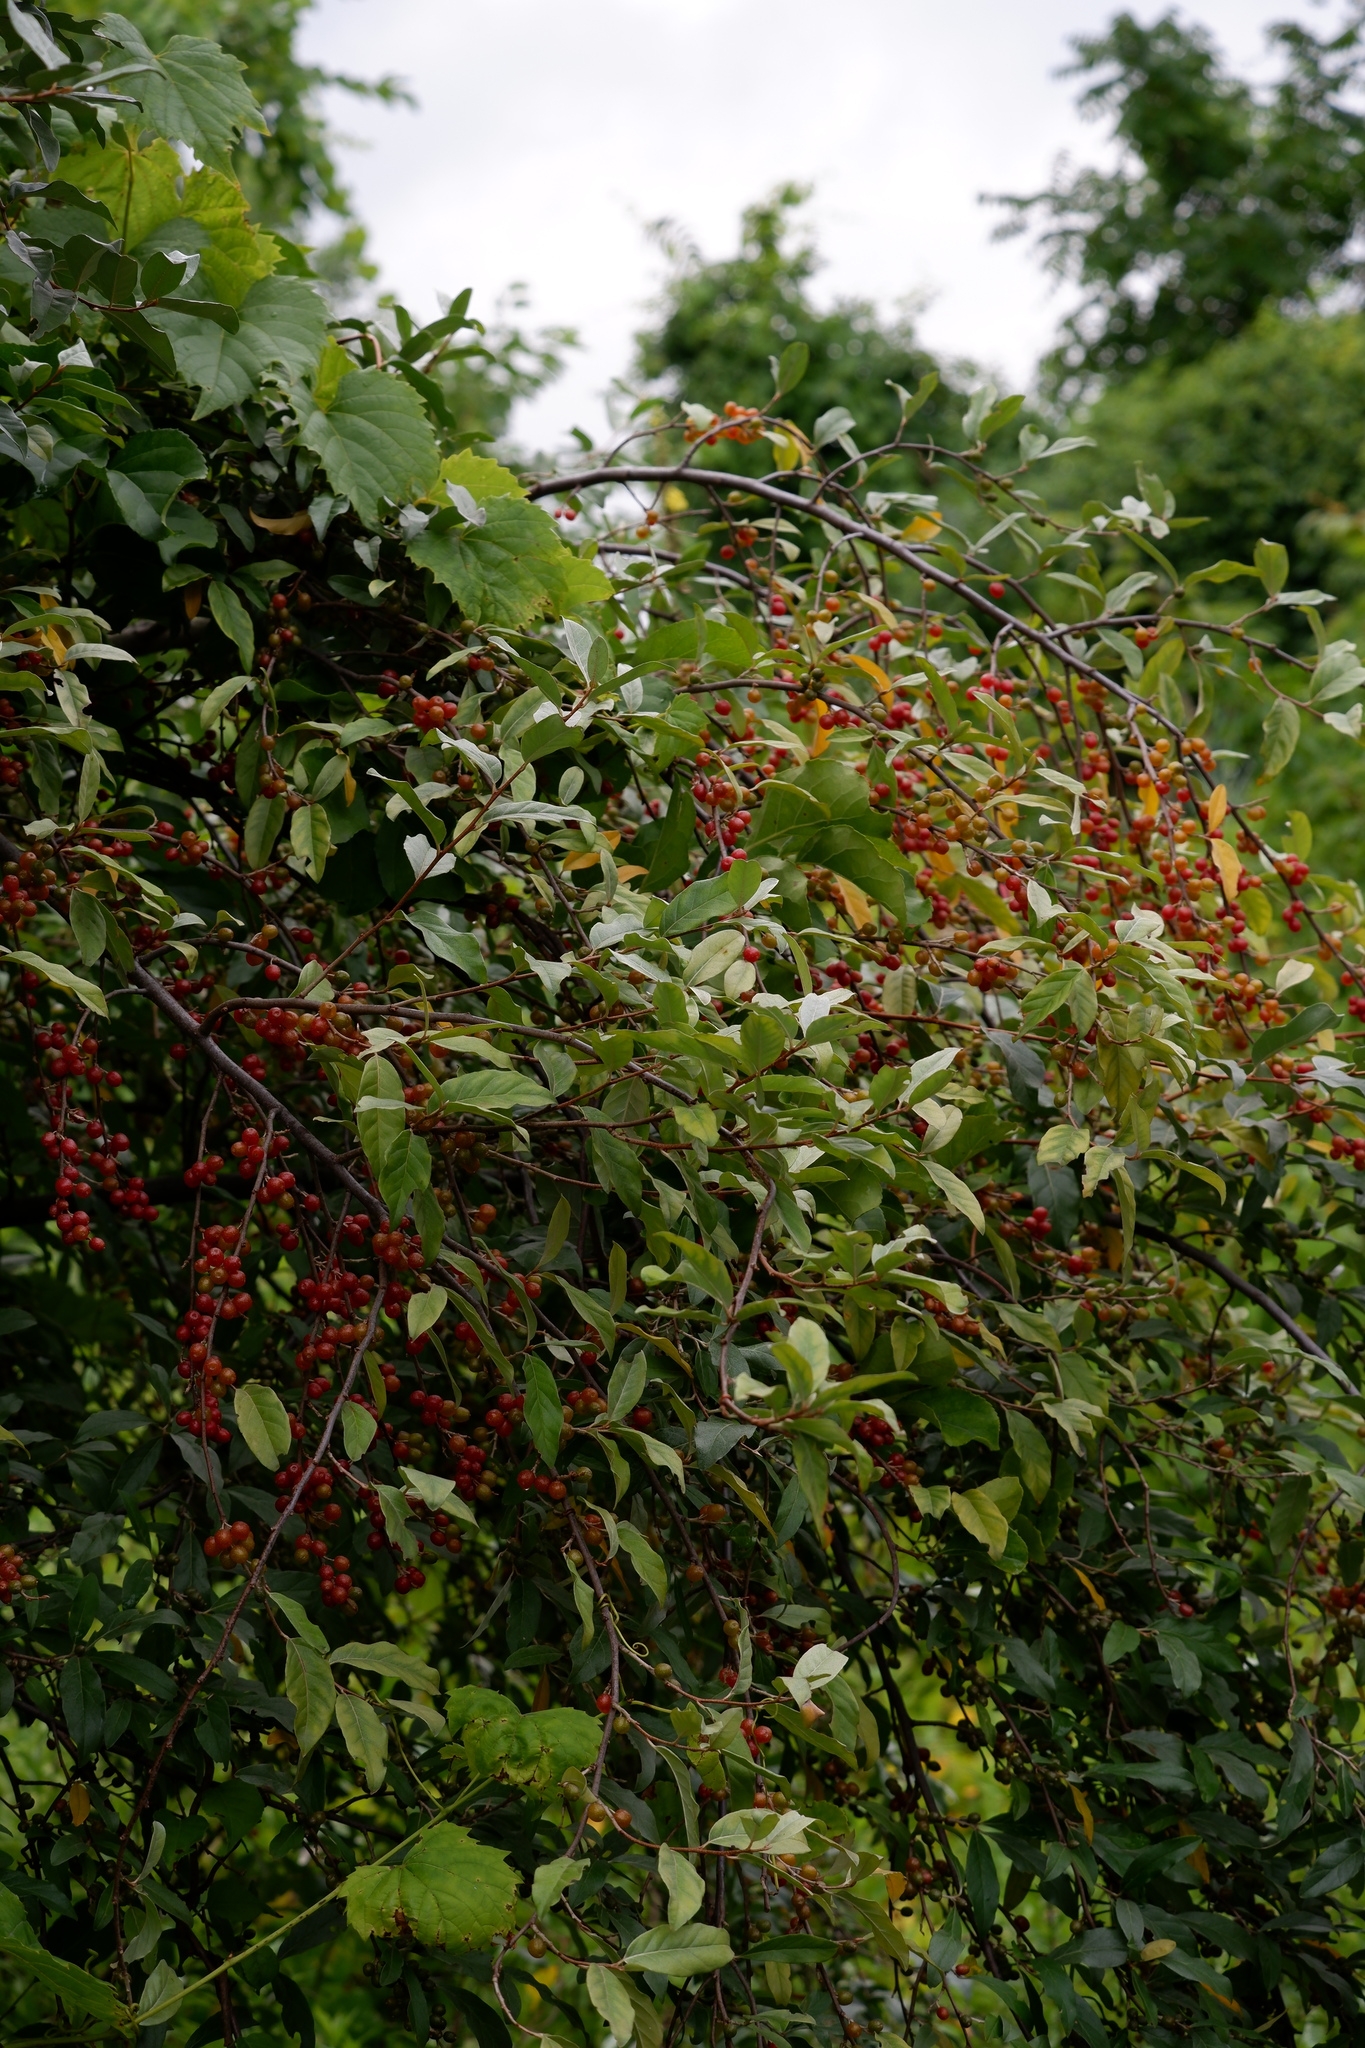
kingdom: Plantae
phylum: Tracheophyta
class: Magnoliopsida
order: Rosales
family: Elaeagnaceae
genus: Elaeagnus
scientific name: Elaeagnus umbellata
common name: Autumn olive
